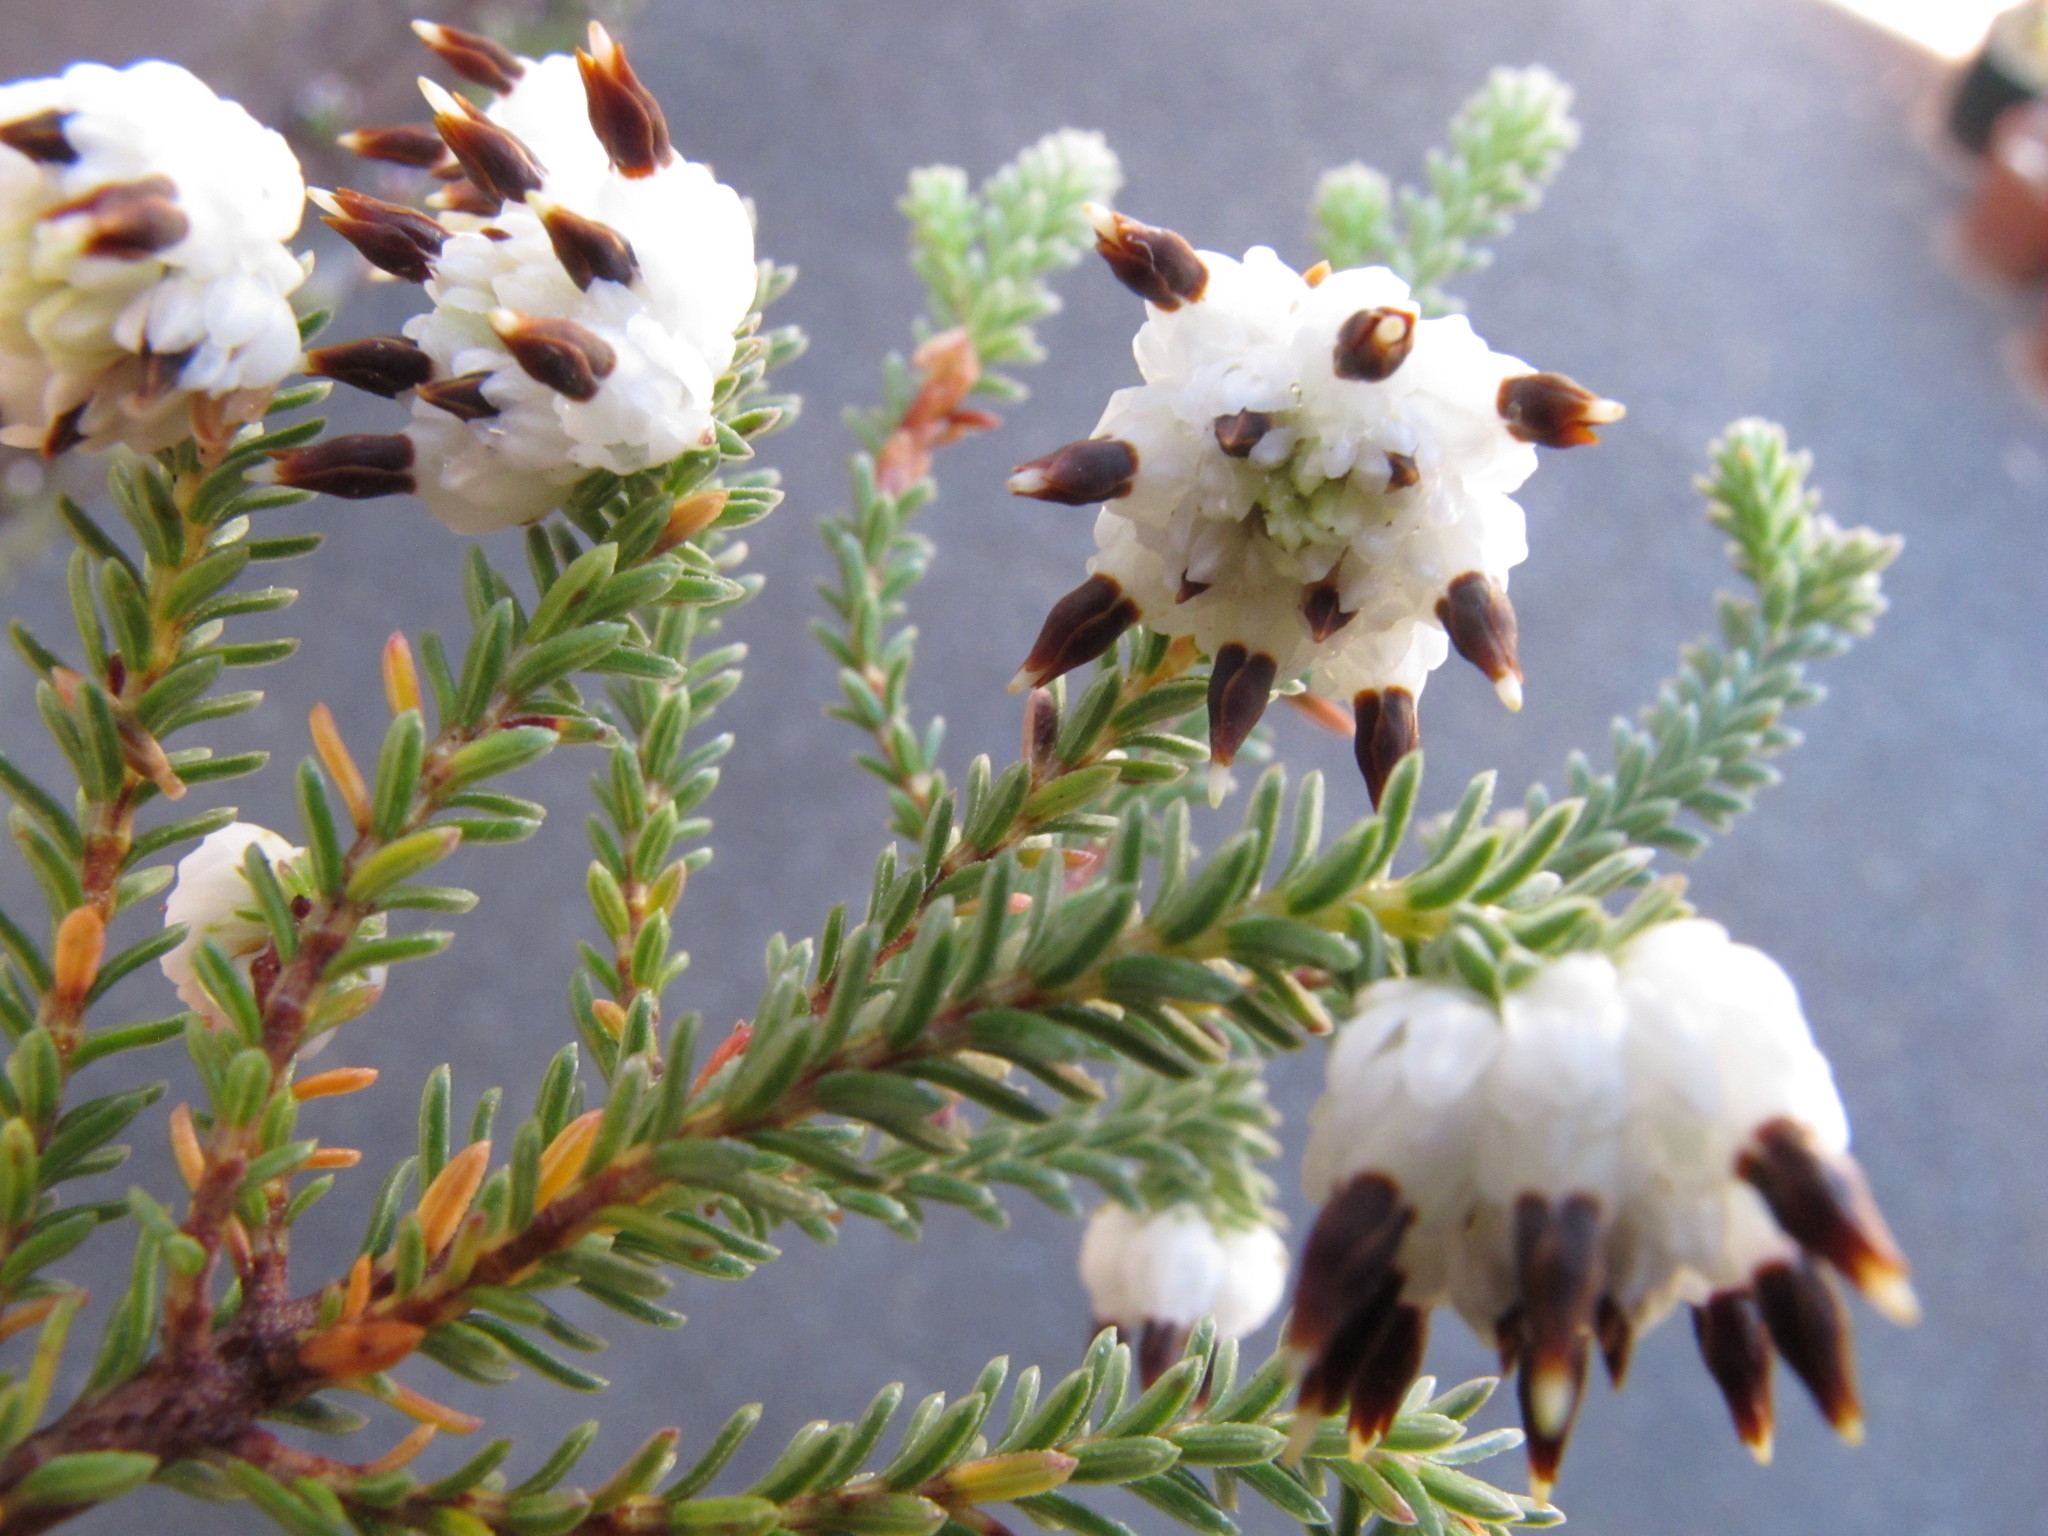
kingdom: Plantae
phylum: Tracheophyta
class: Magnoliopsida
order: Ericales
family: Ericaceae
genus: Erica
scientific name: Erica cumuliflora
